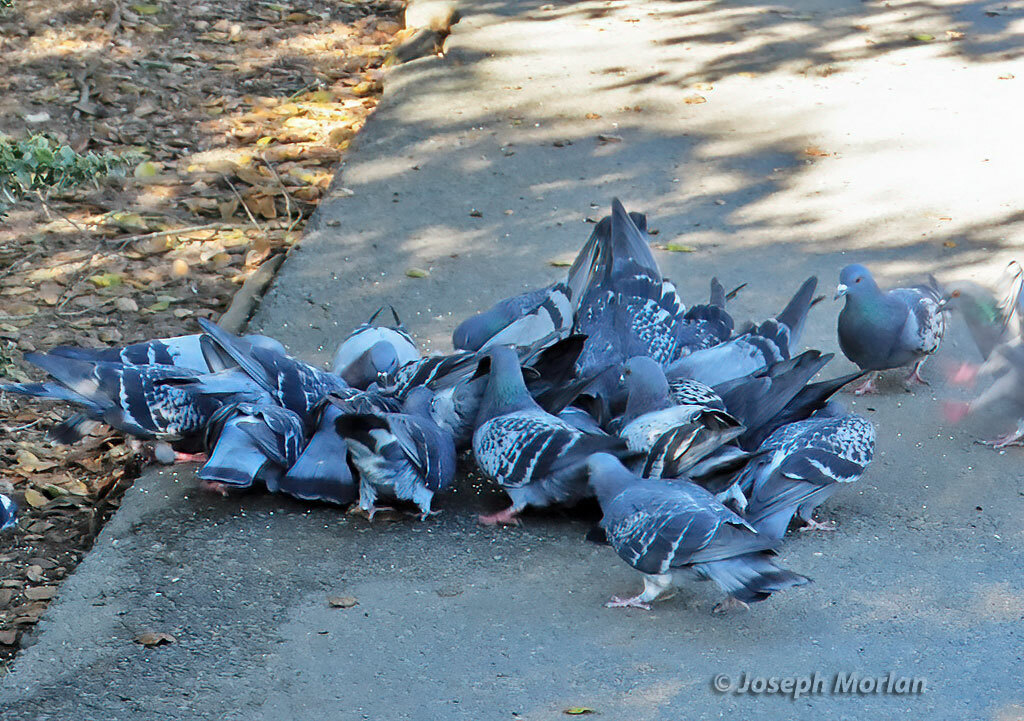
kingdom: Animalia
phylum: Chordata
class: Aves
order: Columbiformes
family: Columbidae
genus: Columba
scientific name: Columba livia
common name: Rock pigeon
